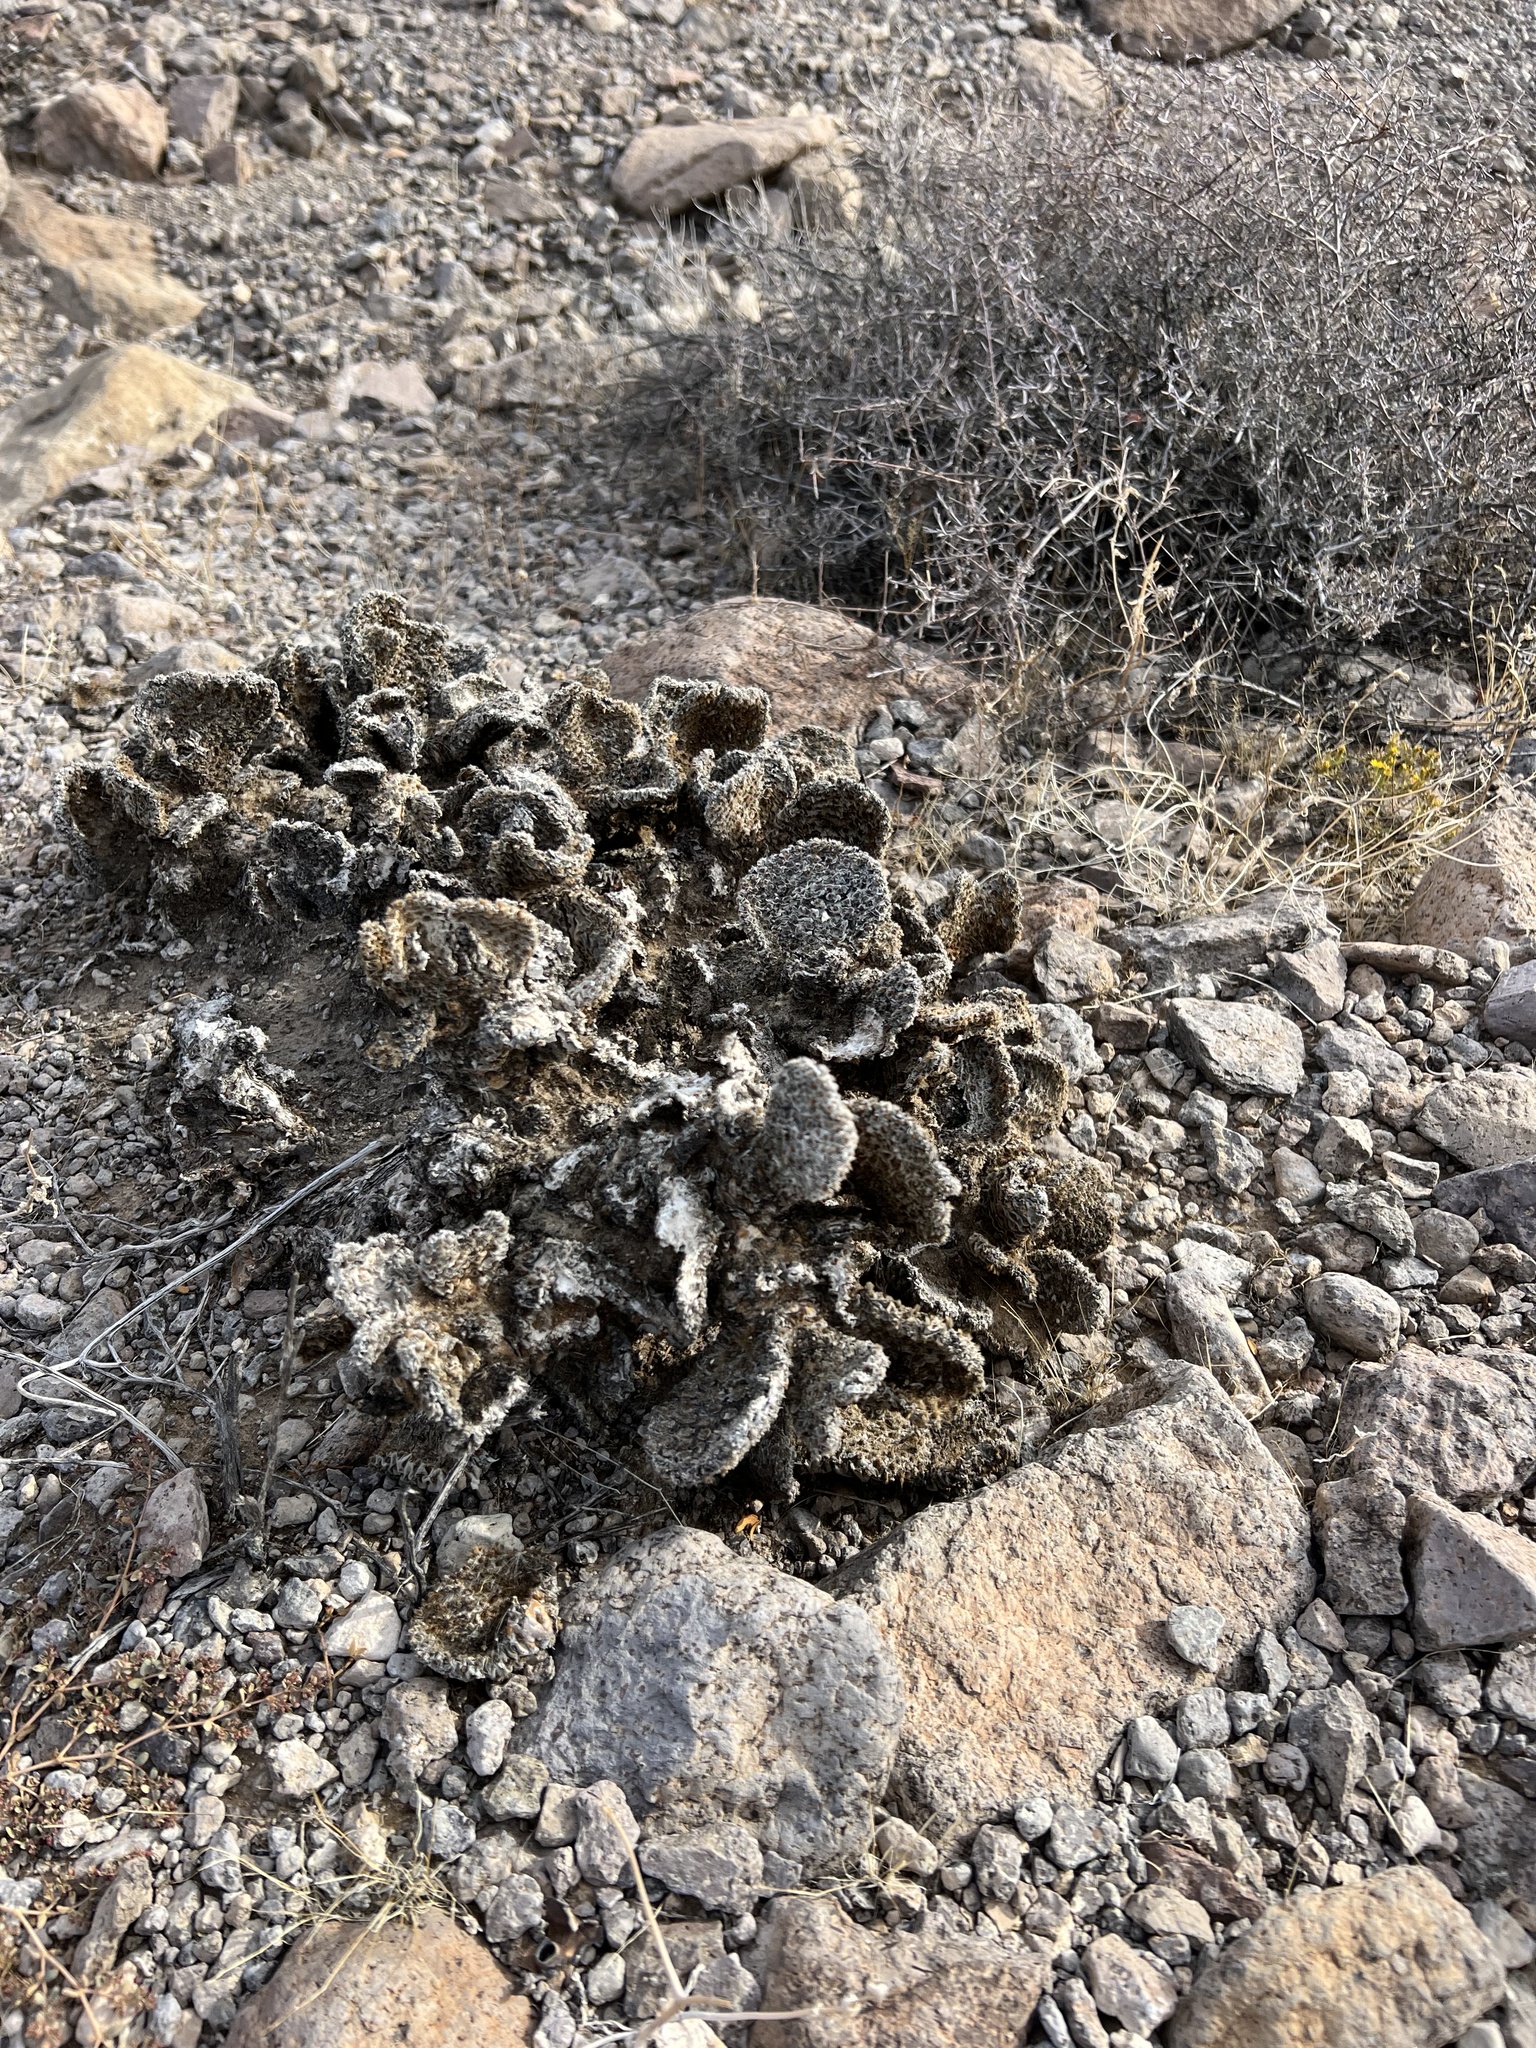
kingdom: Plantae
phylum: Tracheophyta
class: Magnoliopsida
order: Caryophyllales
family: Cactaceae
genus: Opuntia
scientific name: Opuntia basilaris
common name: Beavertail prickly-pear
